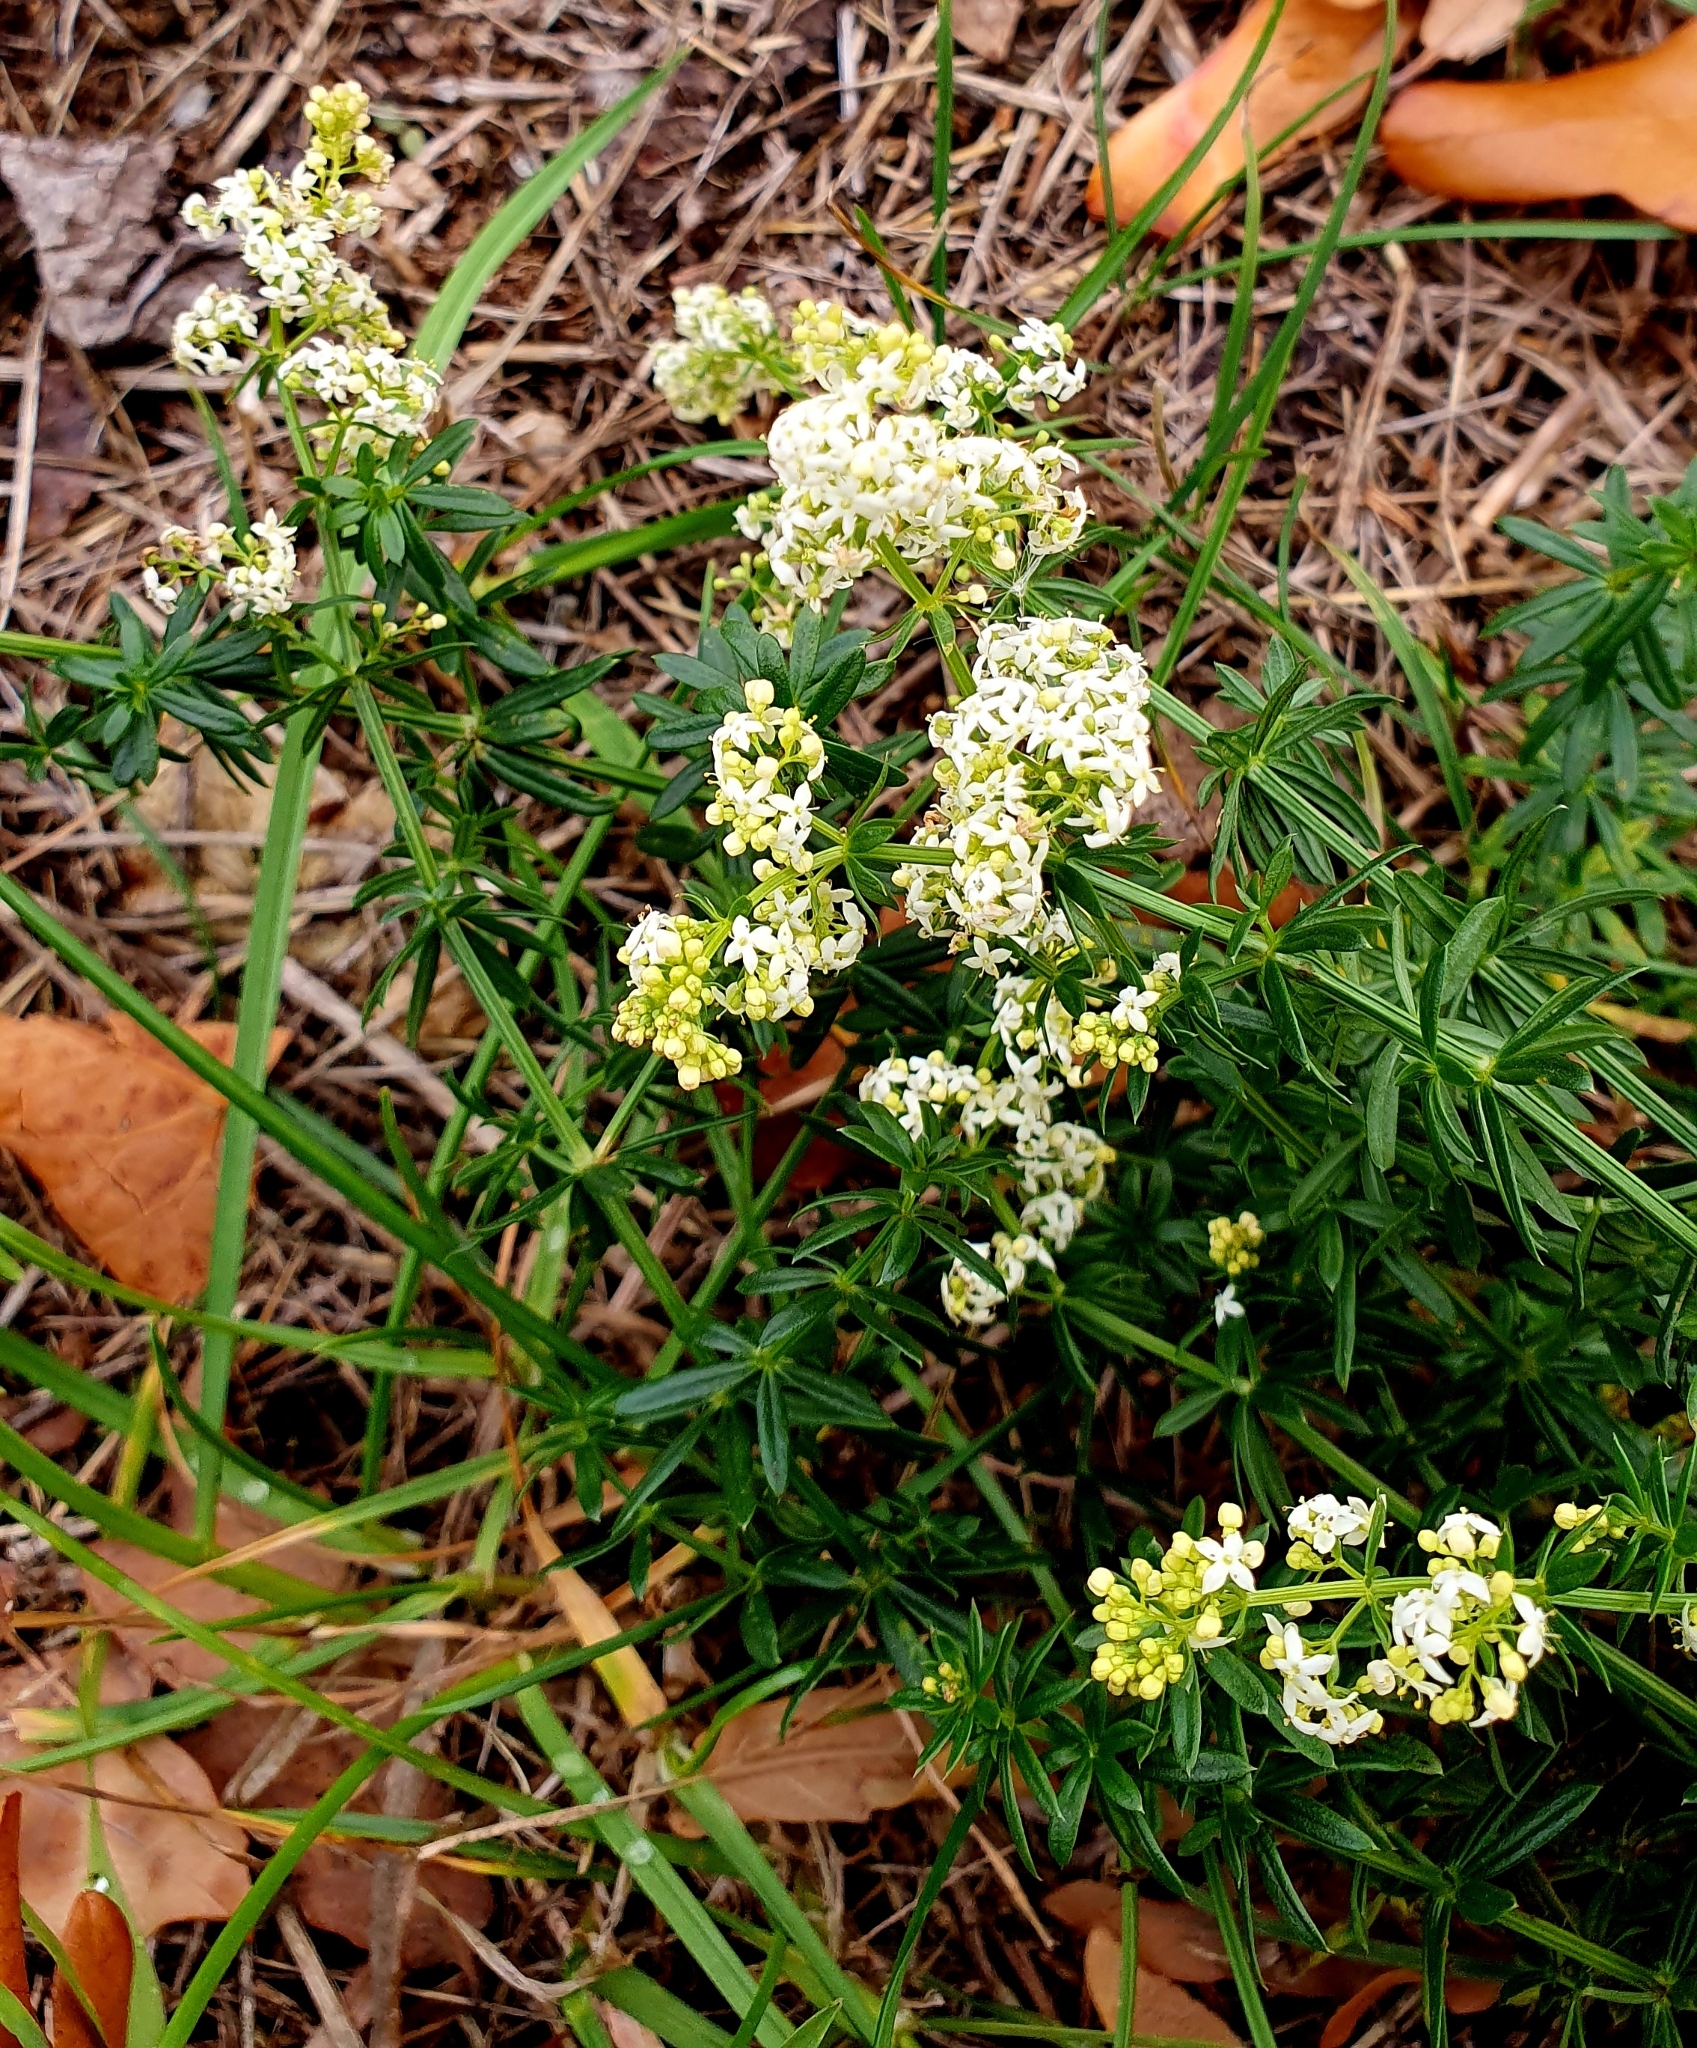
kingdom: Plantae
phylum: Tracheophyta
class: Magnoliopsida
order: Gentianales
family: Rubiaceae
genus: Galium
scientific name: Galium mollugo
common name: Hedge bedstraw
